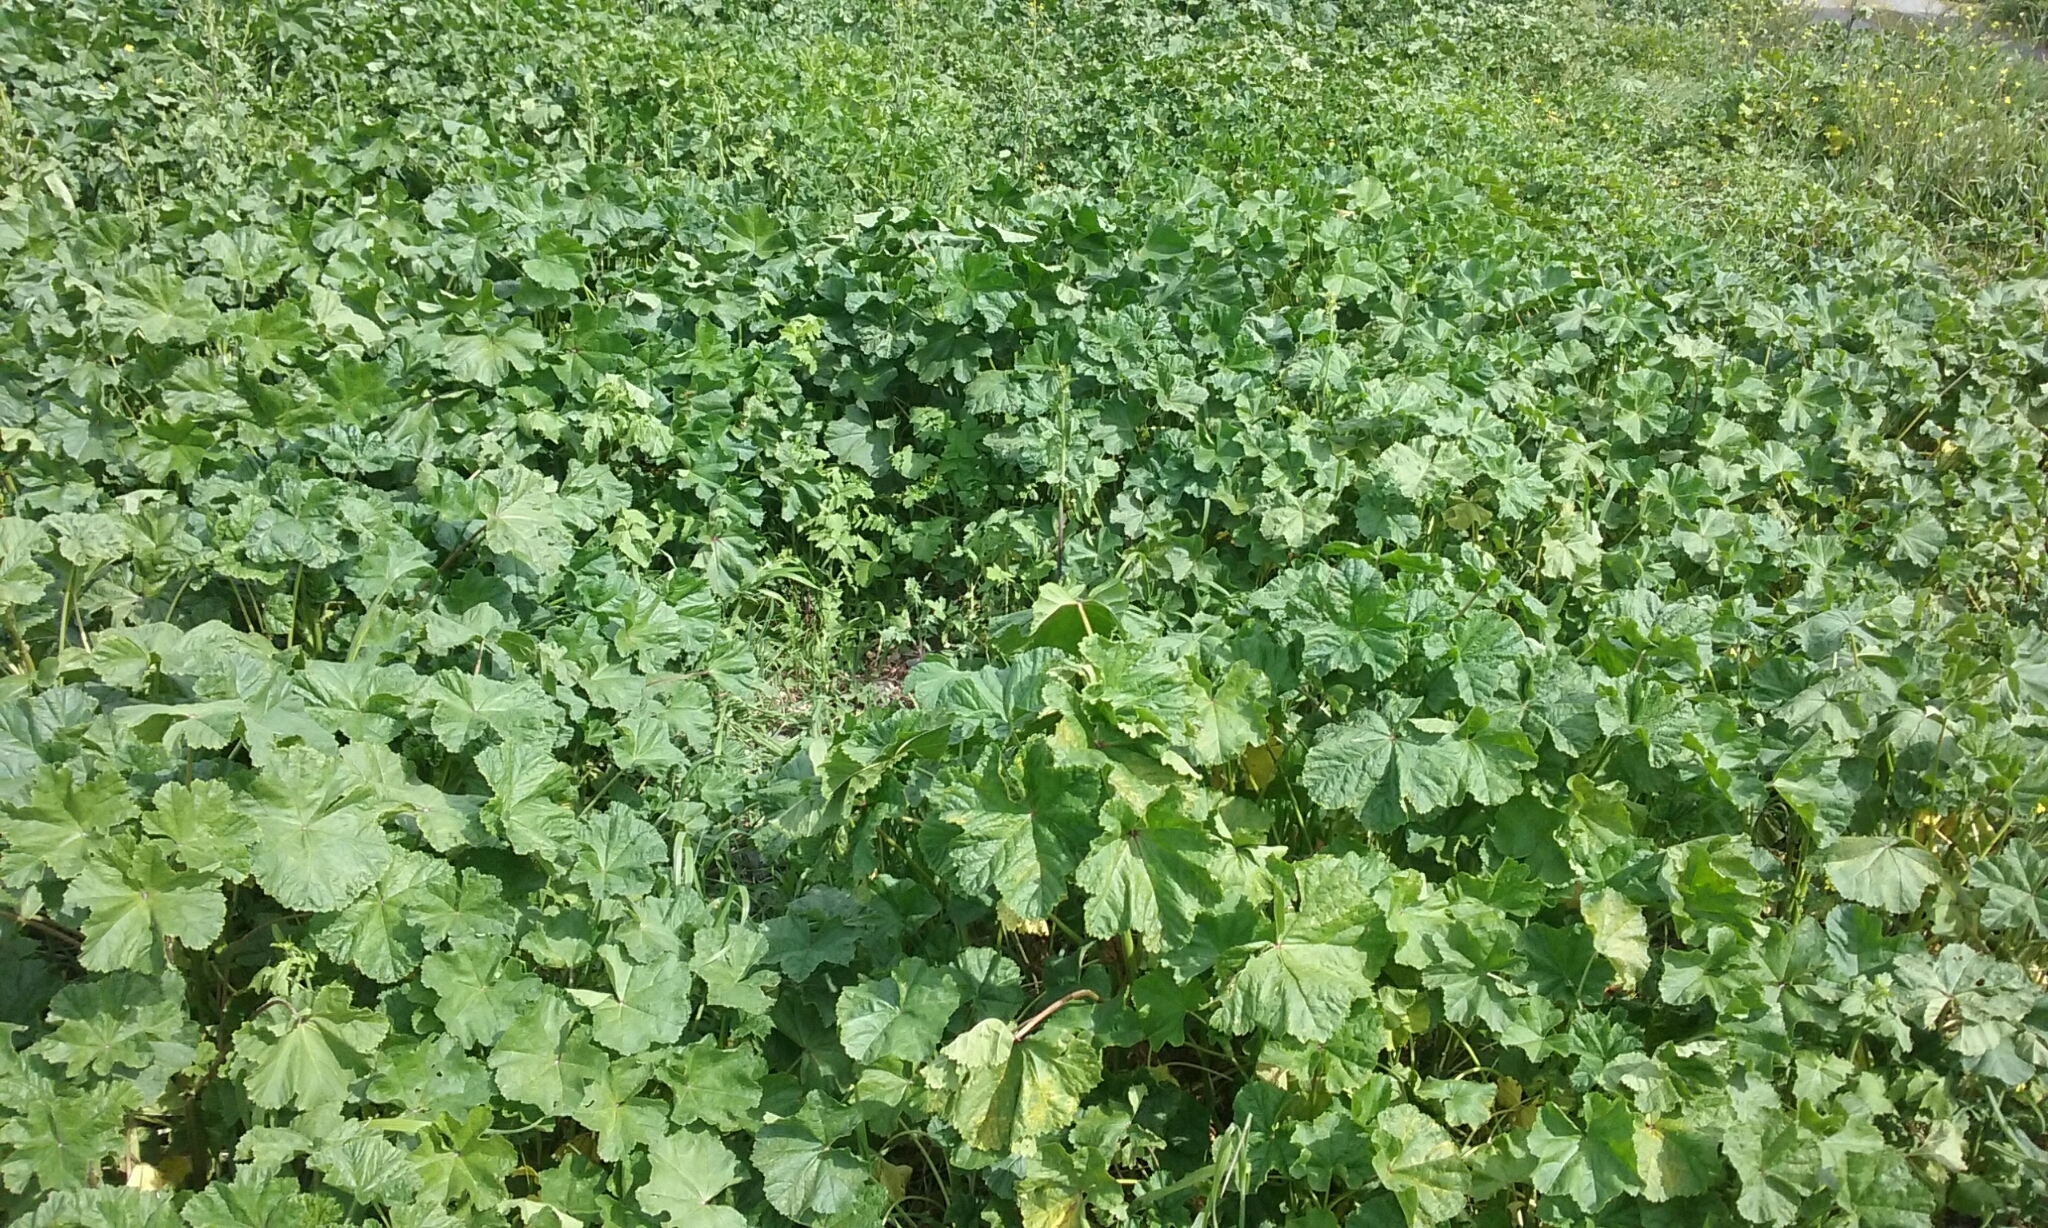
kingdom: Plantae
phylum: Tracheophyta
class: Magnoliopsida
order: Malvales
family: Malvaceae
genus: Malva
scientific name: Malva sylvestris
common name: Common mallow
